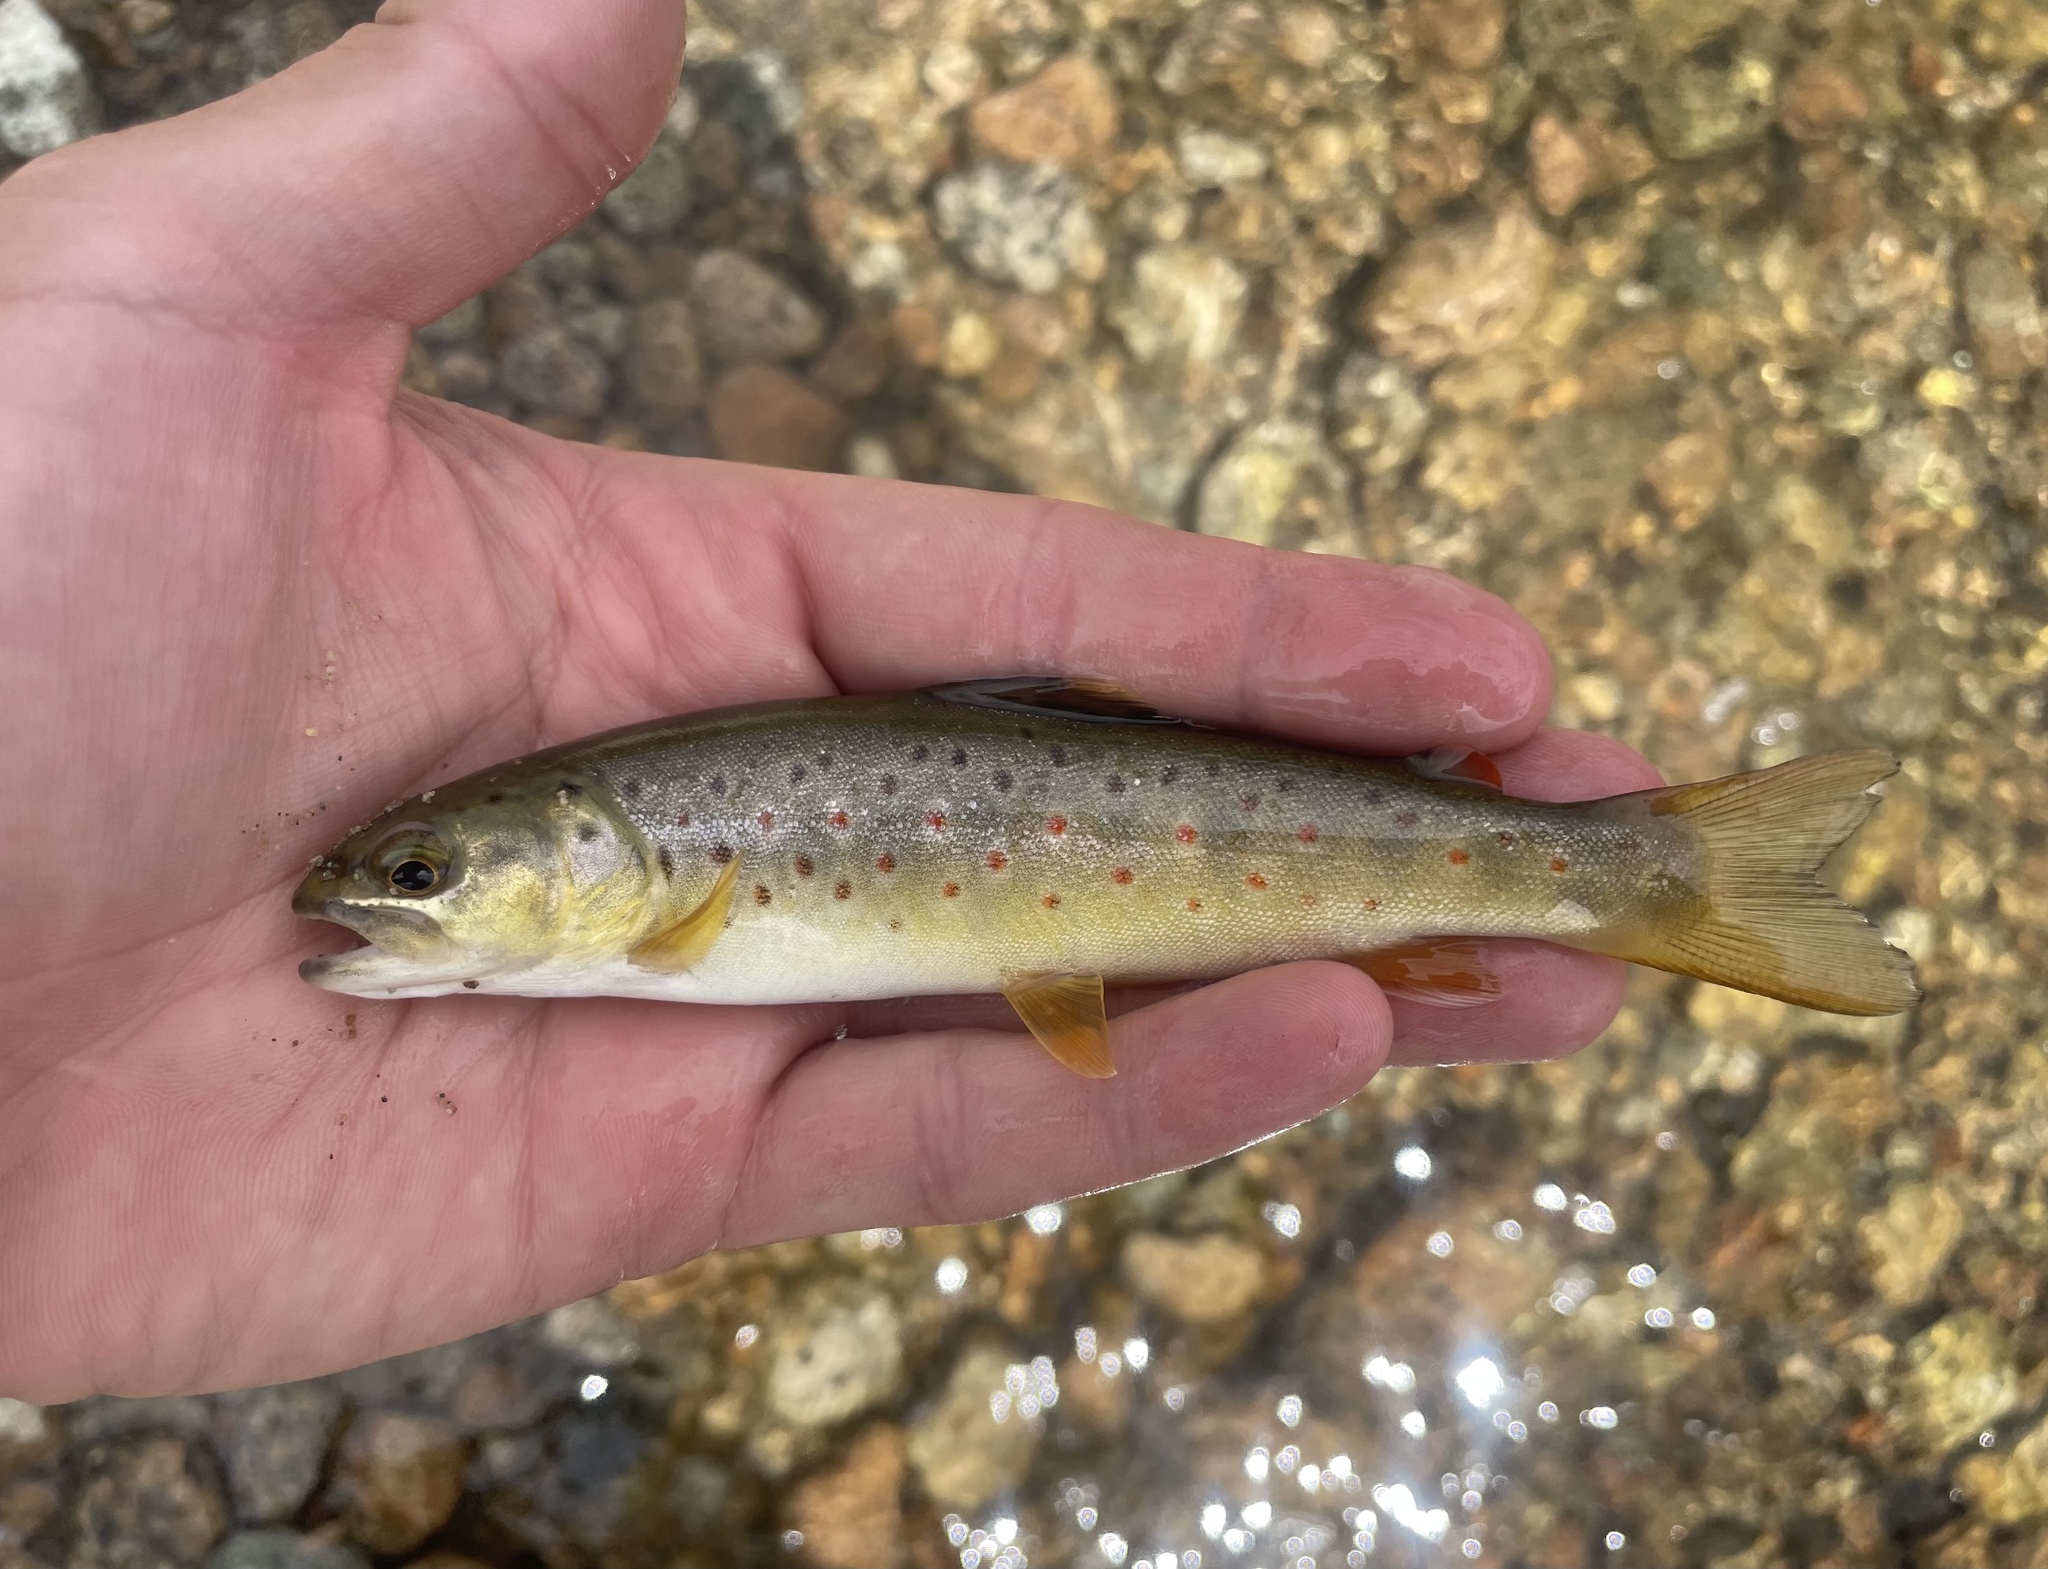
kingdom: Animalia
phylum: Chordata
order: Salmoniformes
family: Salmonidae
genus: Salmo
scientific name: Salmo trutta
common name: Brown trout
